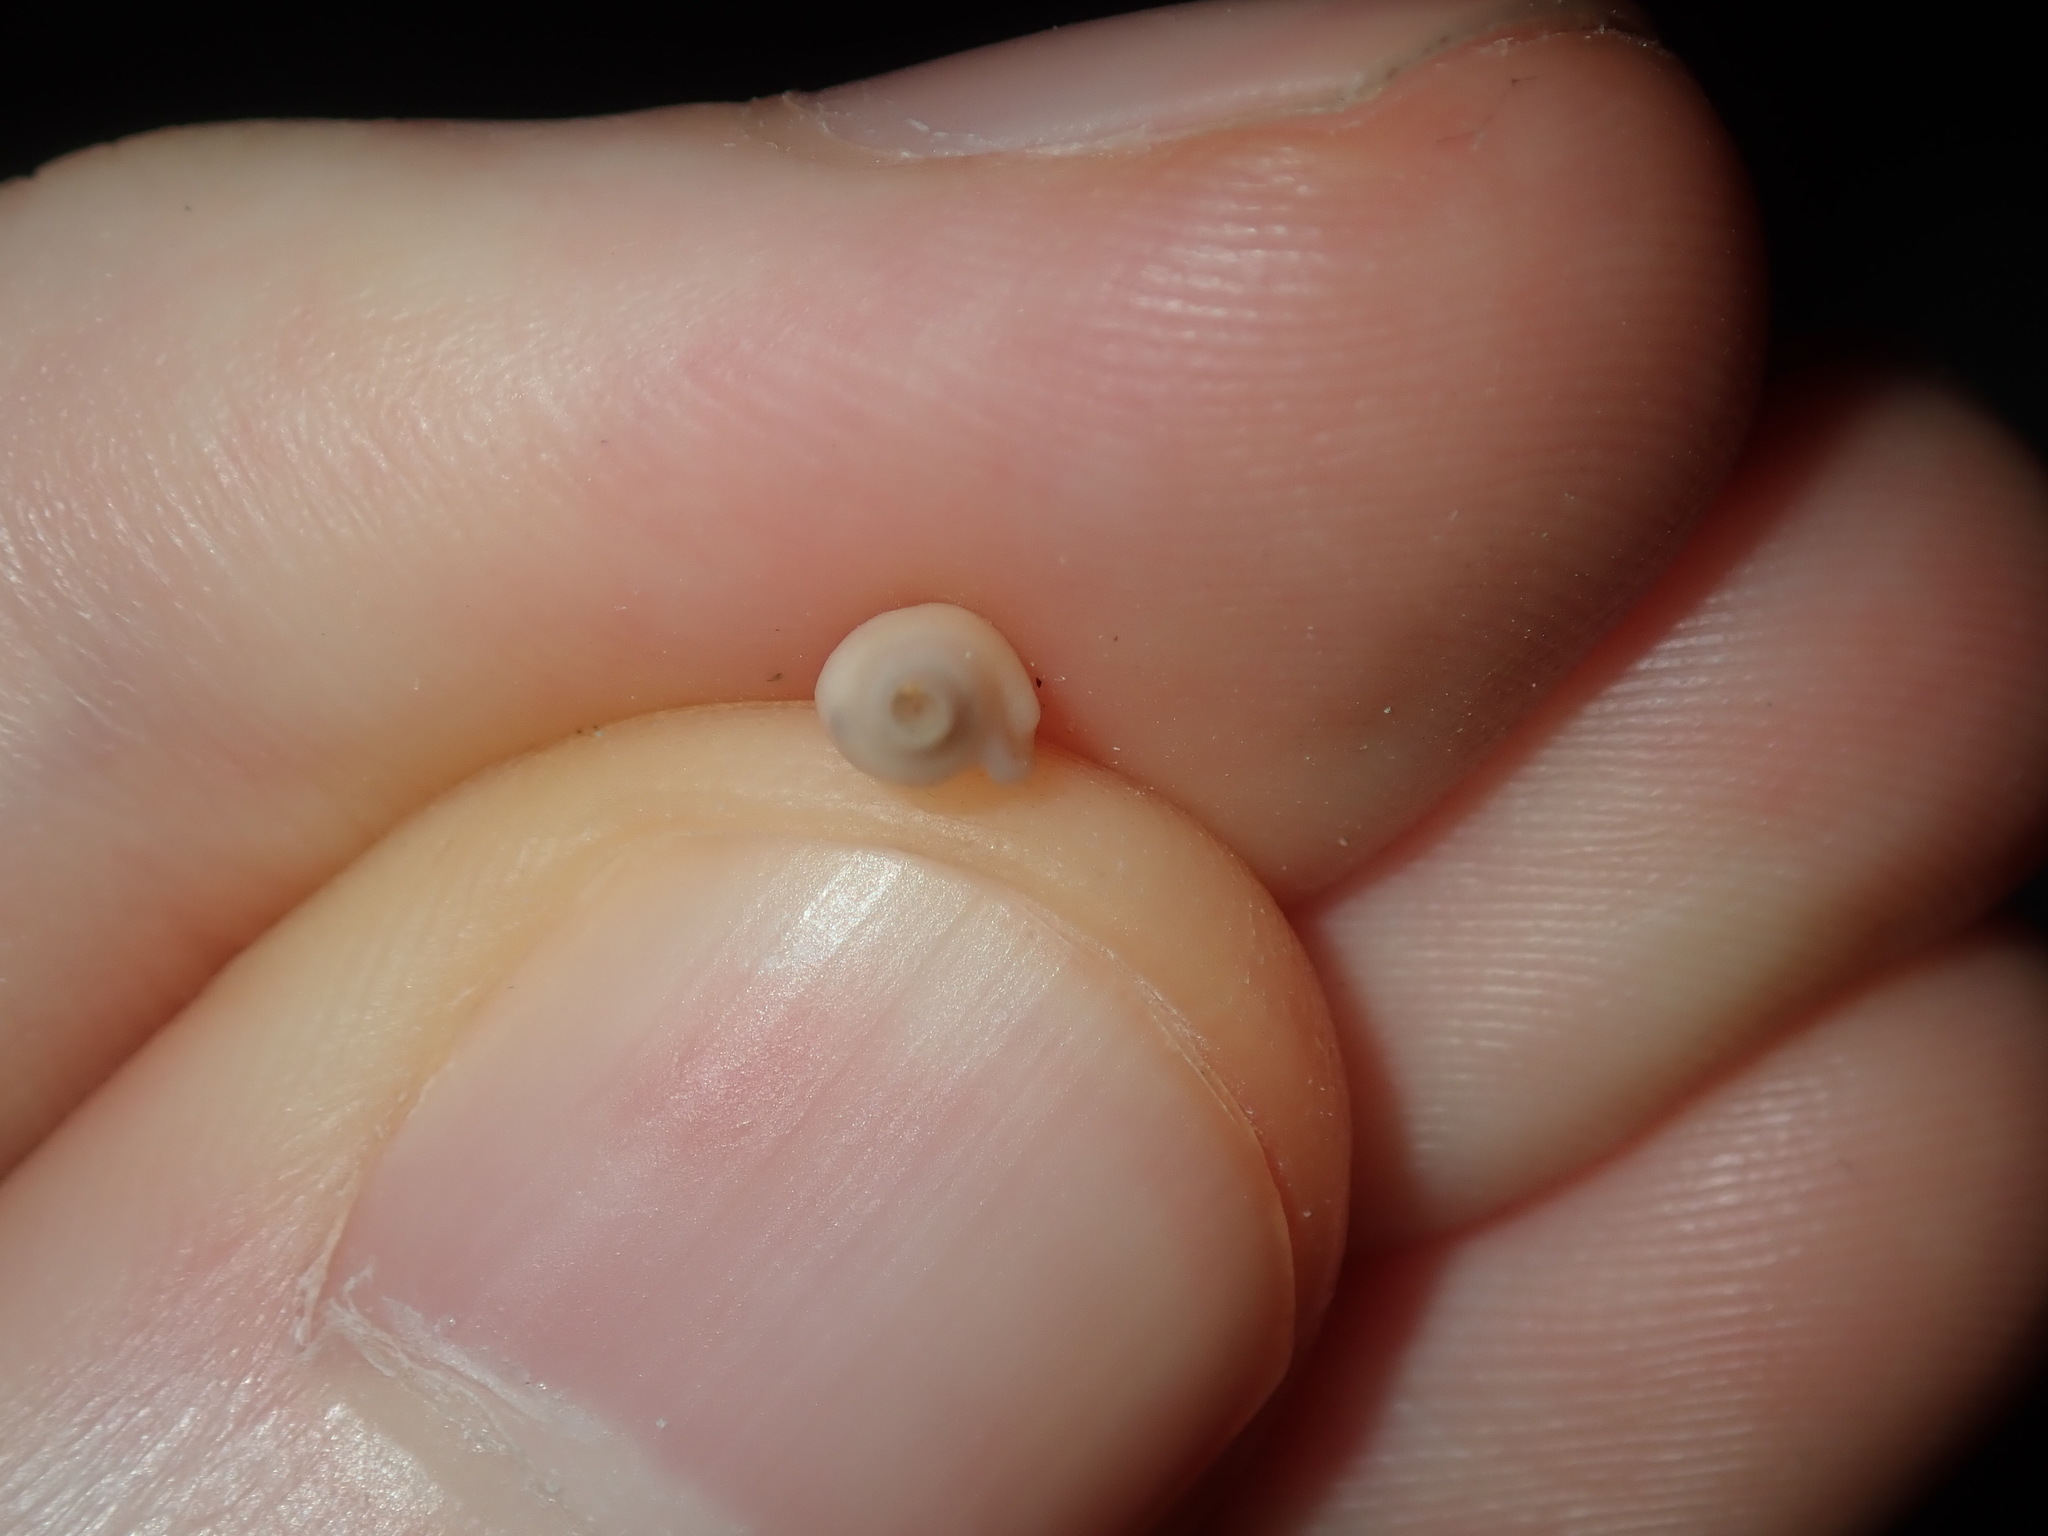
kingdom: Animalia
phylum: Mollusca
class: Gastropoda
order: Neogastropoda
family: Marginellidae
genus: Austroginella
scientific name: Austroginella johnstoni
